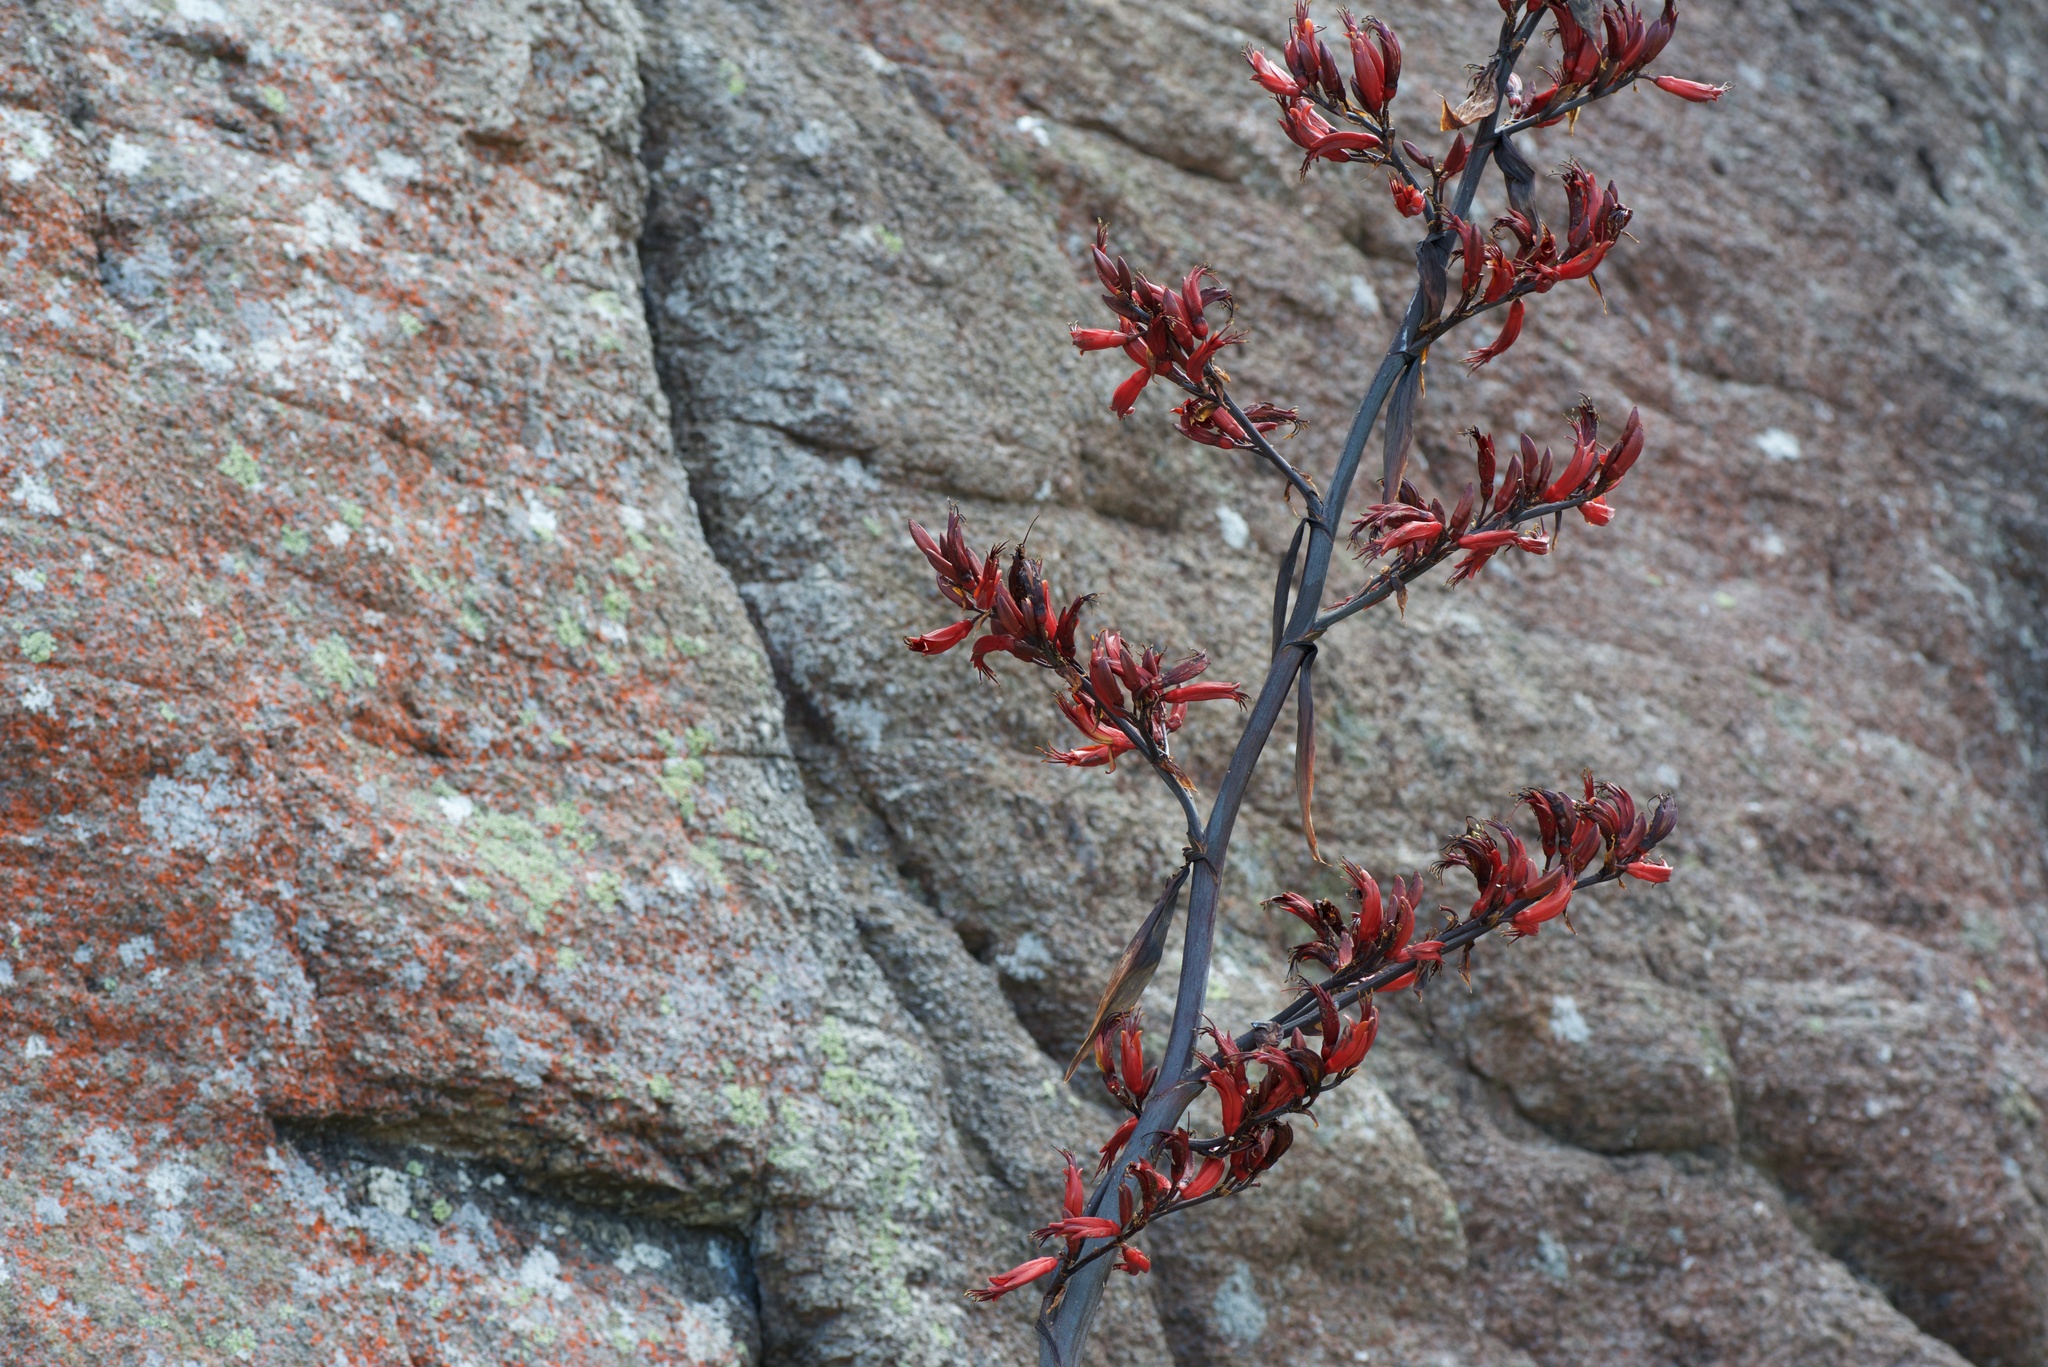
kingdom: Plantae
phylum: Tracheophyta
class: Liliopsida
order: Asparagales
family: Asphodelaceae
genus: Phormium
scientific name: Phormium tenax
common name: New zealand flax
